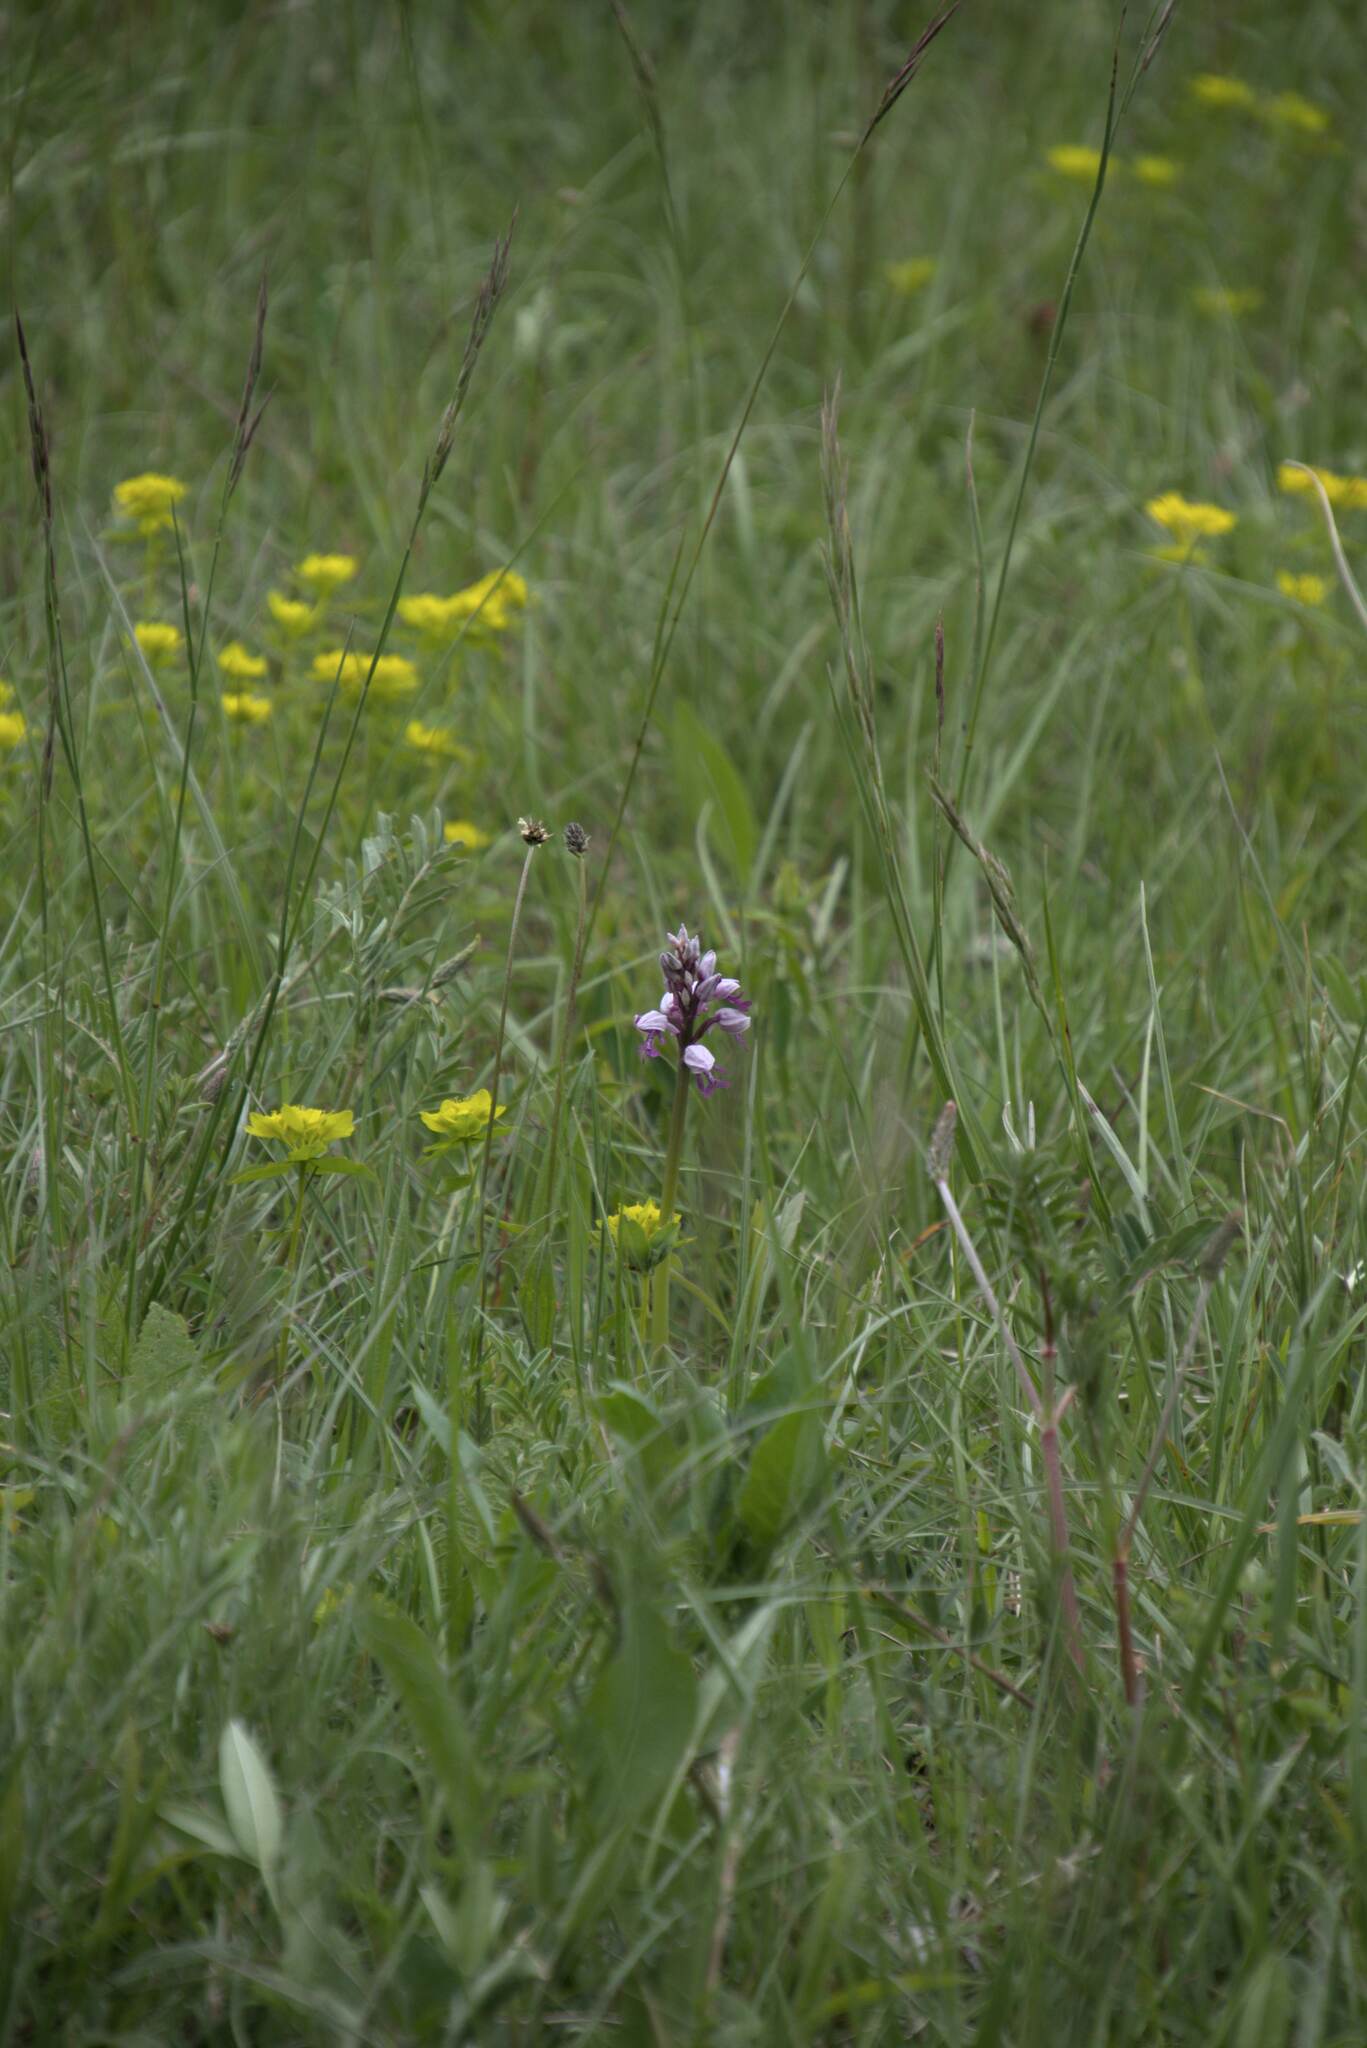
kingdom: Plantae
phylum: Tracheophyta
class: Liliopsida
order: Asparagales
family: Orchidaceae
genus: Orchis
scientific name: Orchis militaris
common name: Military orchid
